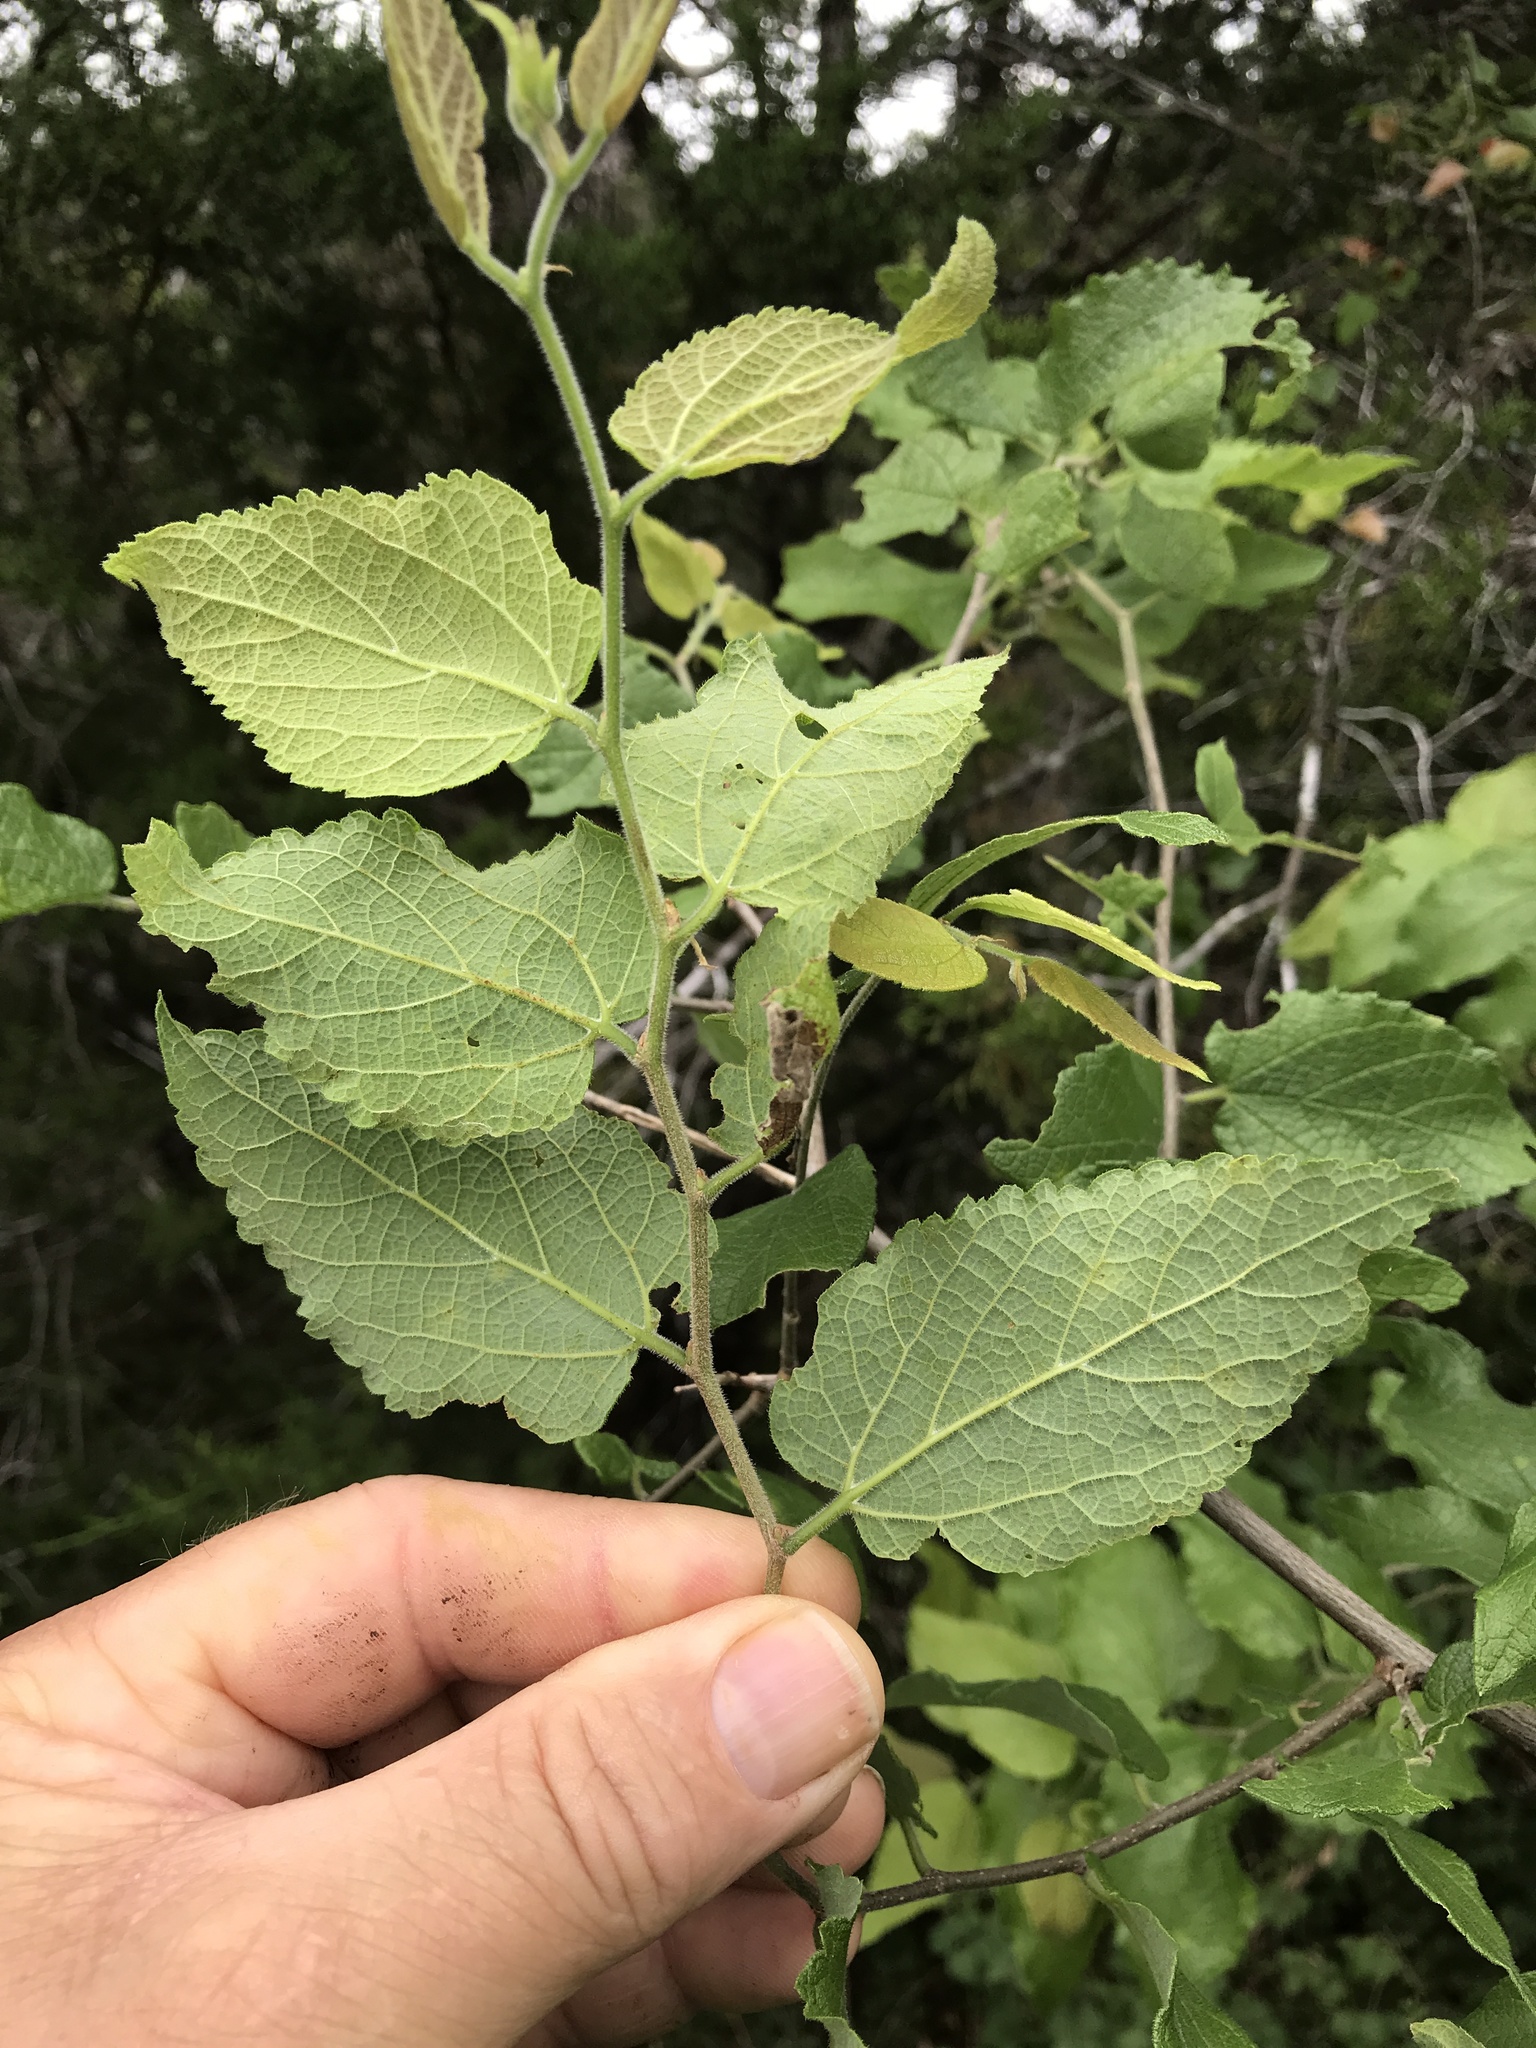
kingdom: Plantae
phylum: Tracheophyta
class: Magnoliopsida
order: Rosales
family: Cannabaceae
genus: Celtis
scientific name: Celtis reticulata
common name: Netleaf hackberry
